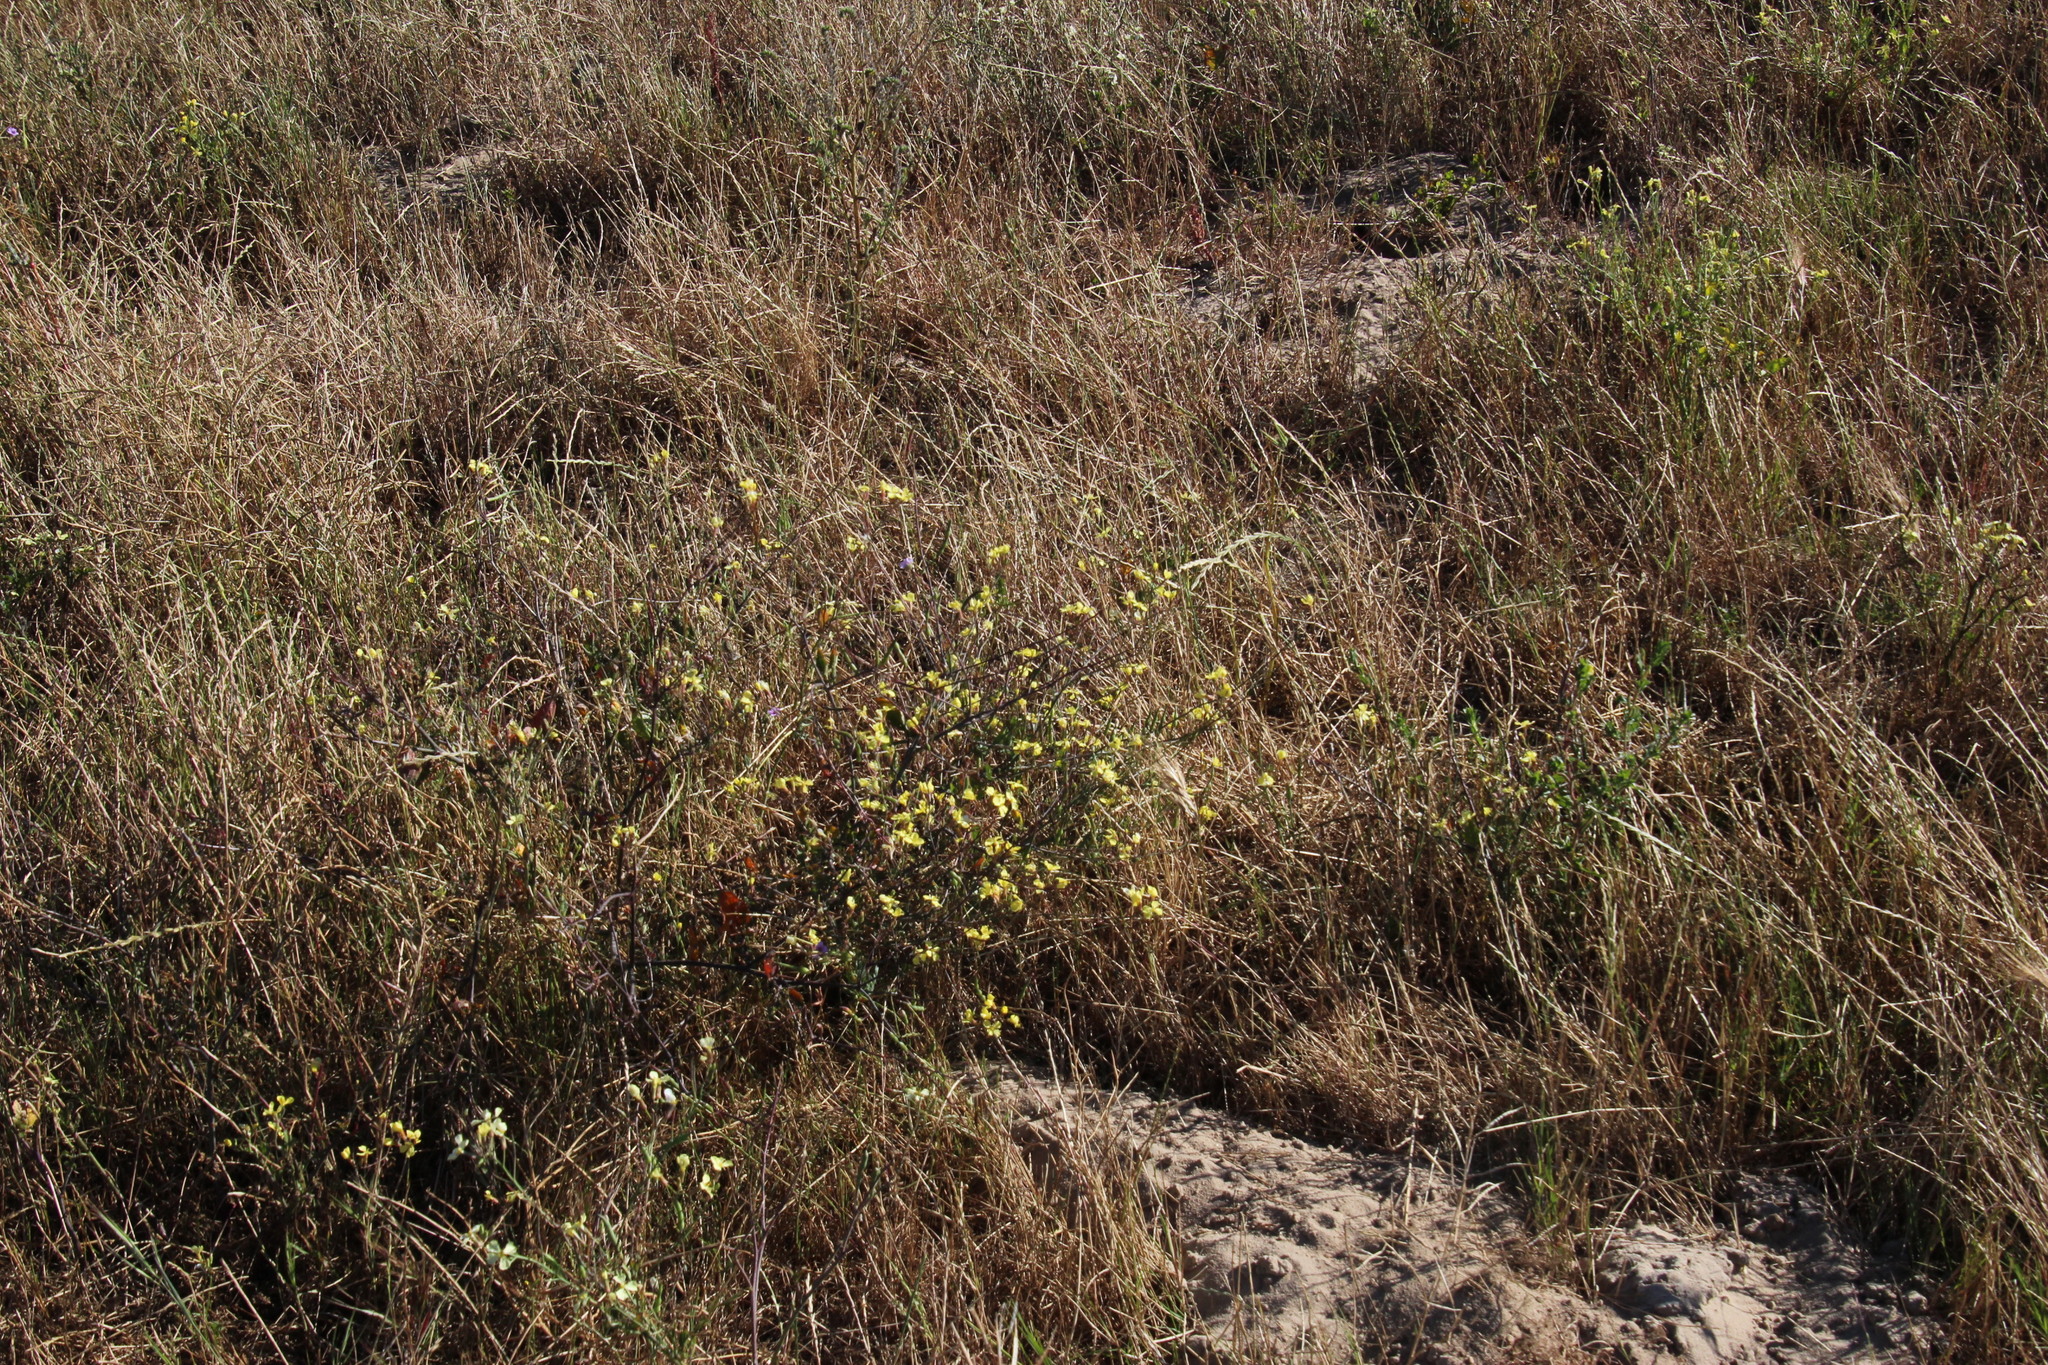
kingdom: Plantae
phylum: Tracheophyta
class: Magnoliopsida
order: Brassicales
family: Brassicaceae
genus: Raphanus
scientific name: Raphanus raphanistrum
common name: Wild radish
